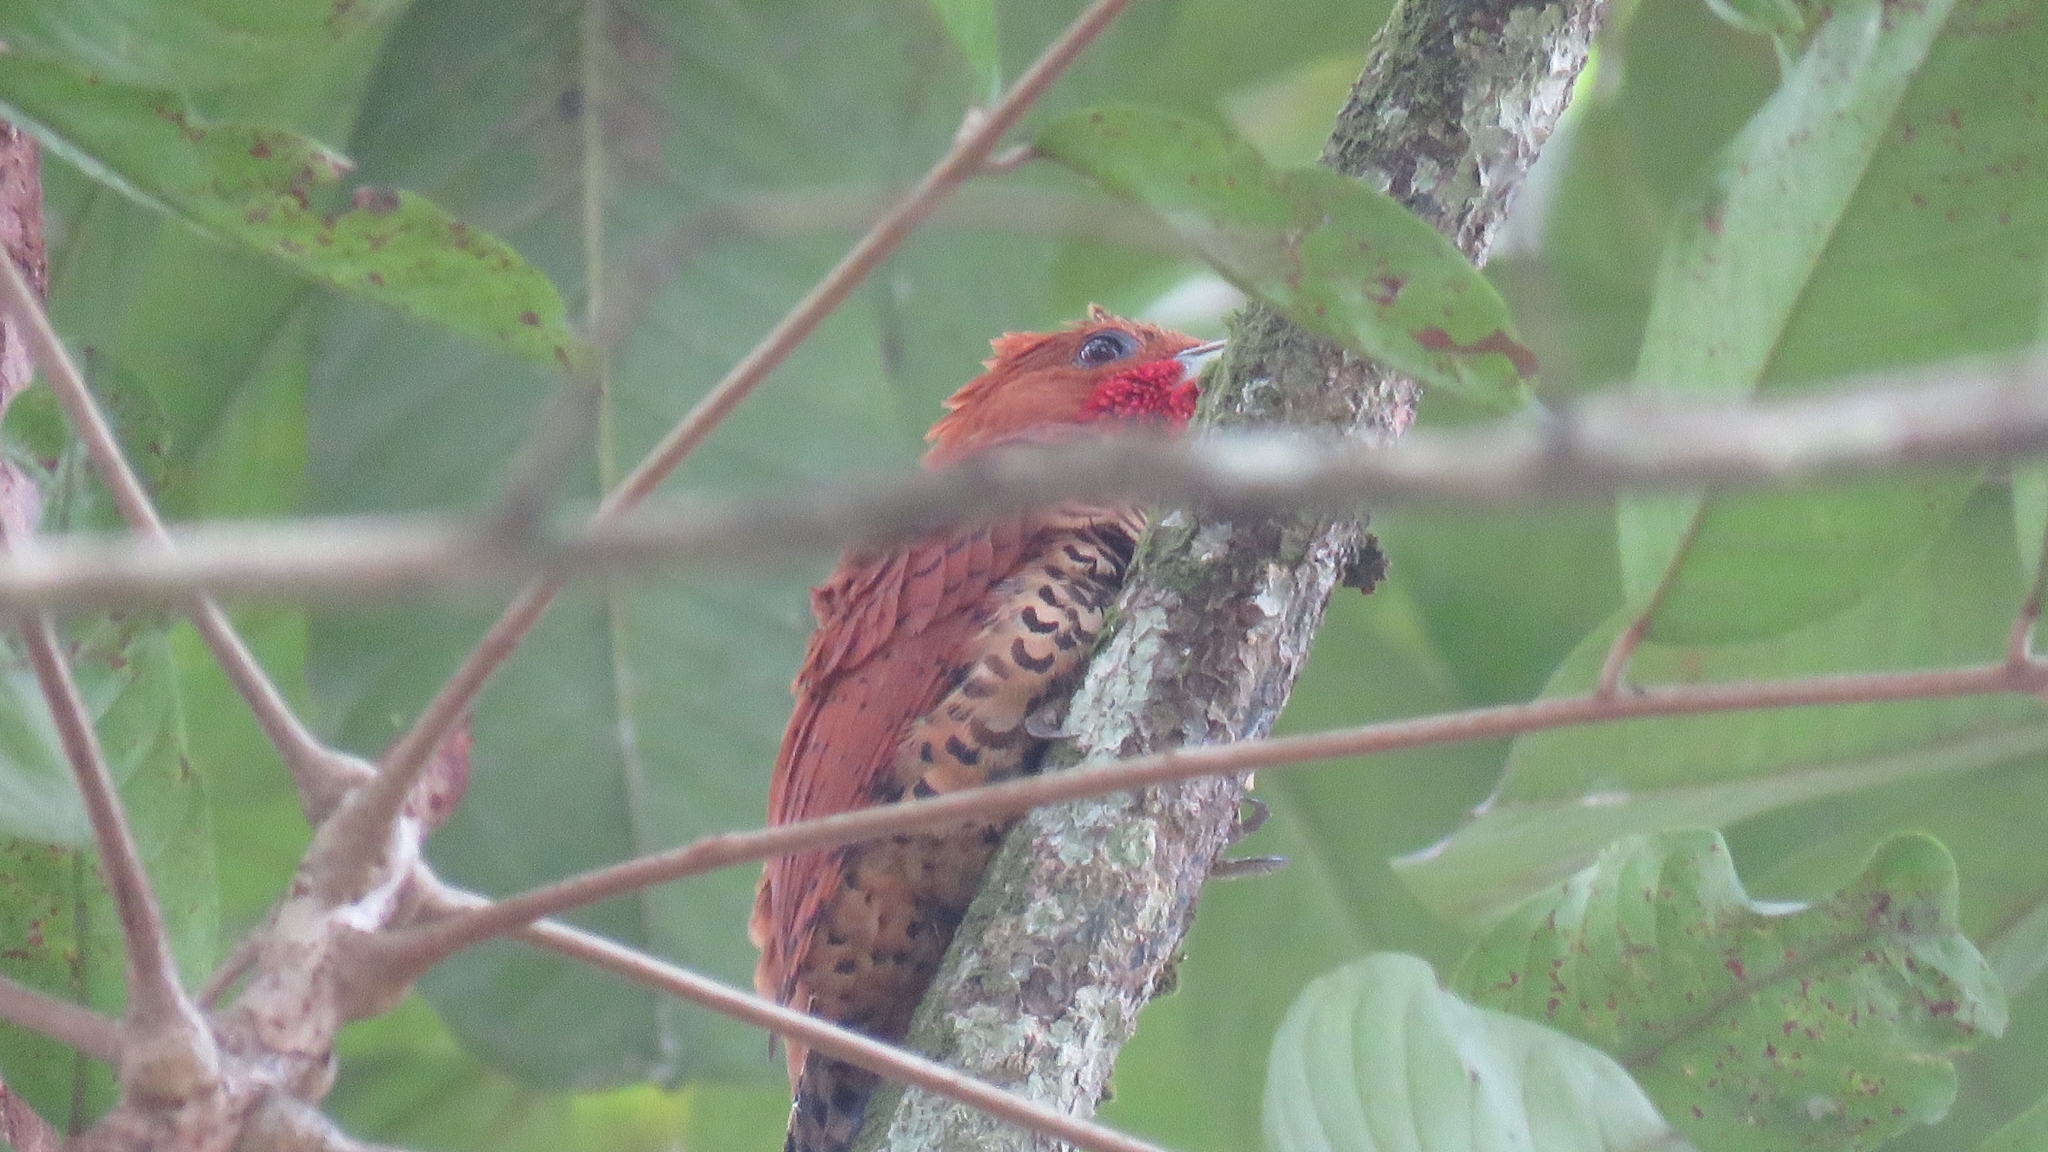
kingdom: Animalia
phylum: Chordata
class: Aves
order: Piciformes
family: Picidae
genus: Celeus
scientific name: Celeus loricatus
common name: Cinnamon woodpecker
